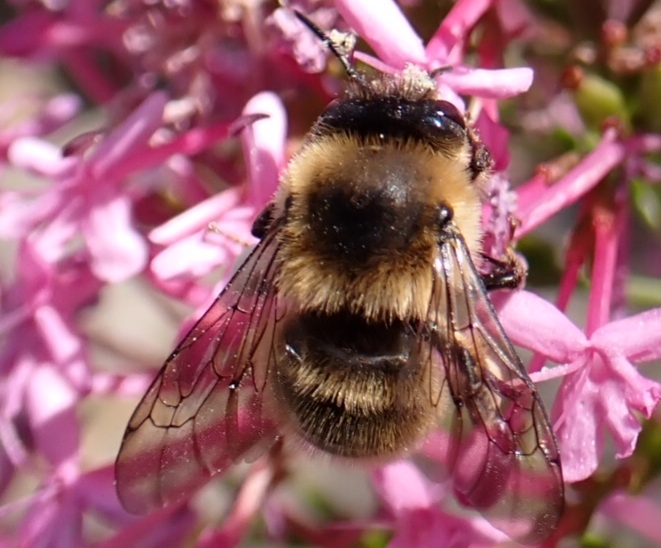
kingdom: Animalia
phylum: Arthropoda
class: Insecta
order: Hymenoptera
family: Apidae
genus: Anthophora
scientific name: Anthophora furcata
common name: Fork-tailed flower bee
